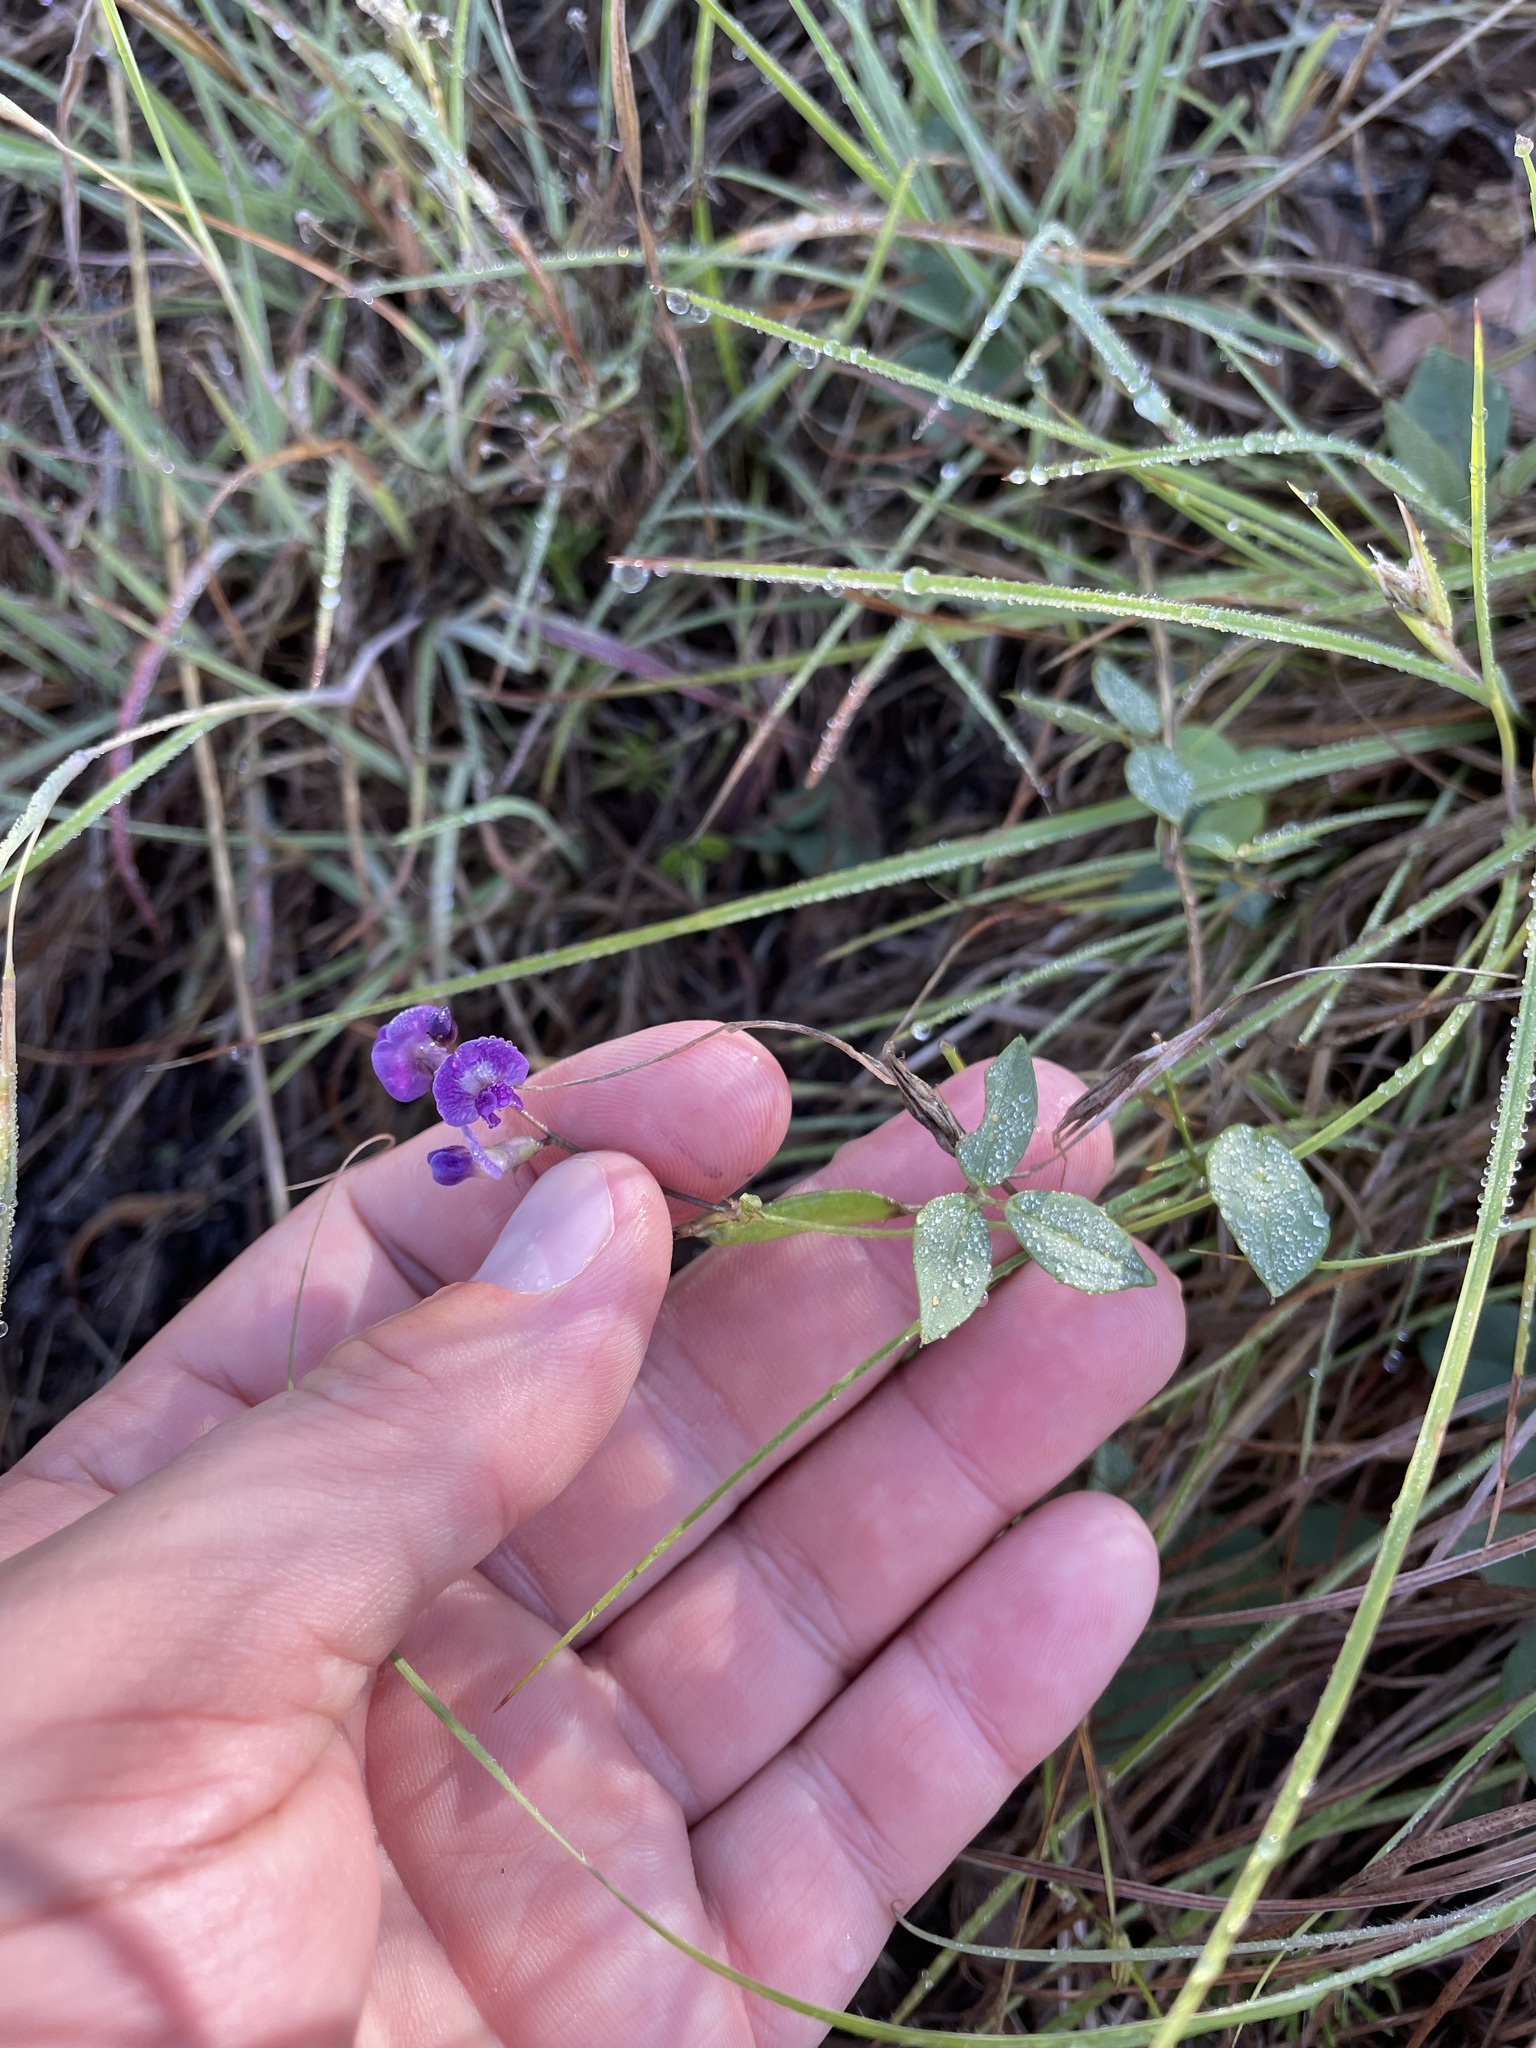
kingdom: Plantae
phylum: Tracheophyta
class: Magnoliopsida
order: Fabales
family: Fabaceae
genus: Glycine
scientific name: Glycine tabacina
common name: Pea glycine
